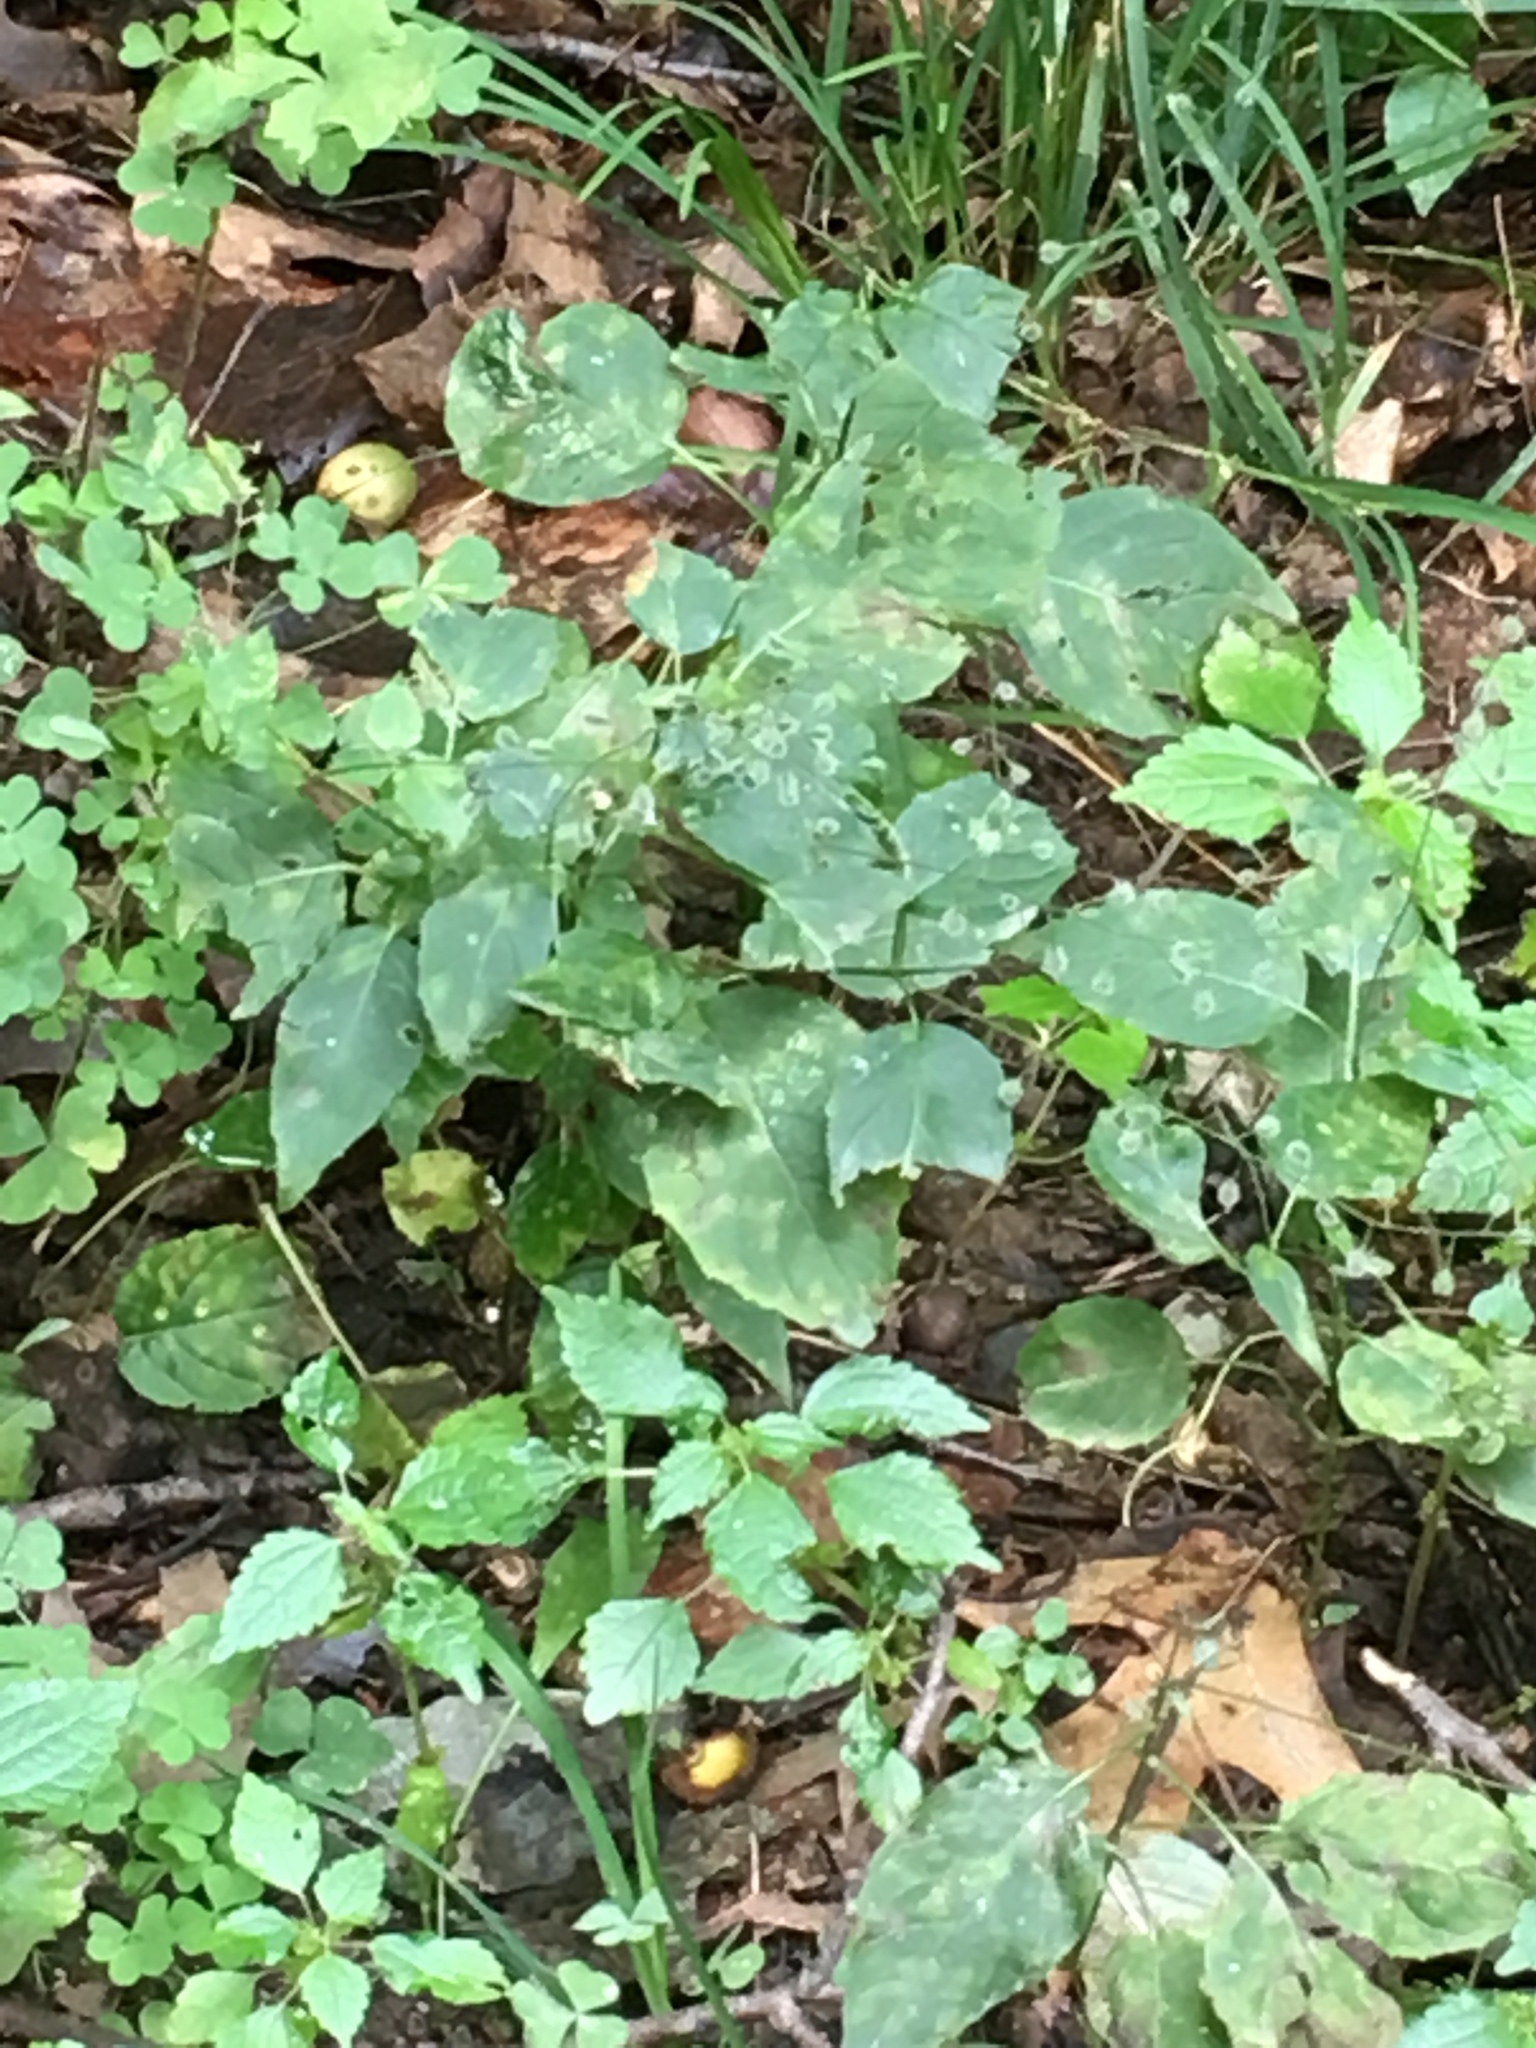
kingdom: Plantae
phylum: Tracheophyta
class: Magnoliopsida
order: Myrtales
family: Onagraceae
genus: Circaea
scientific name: Circaea canadensis
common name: Broad-leaved enchanter's nightshade
